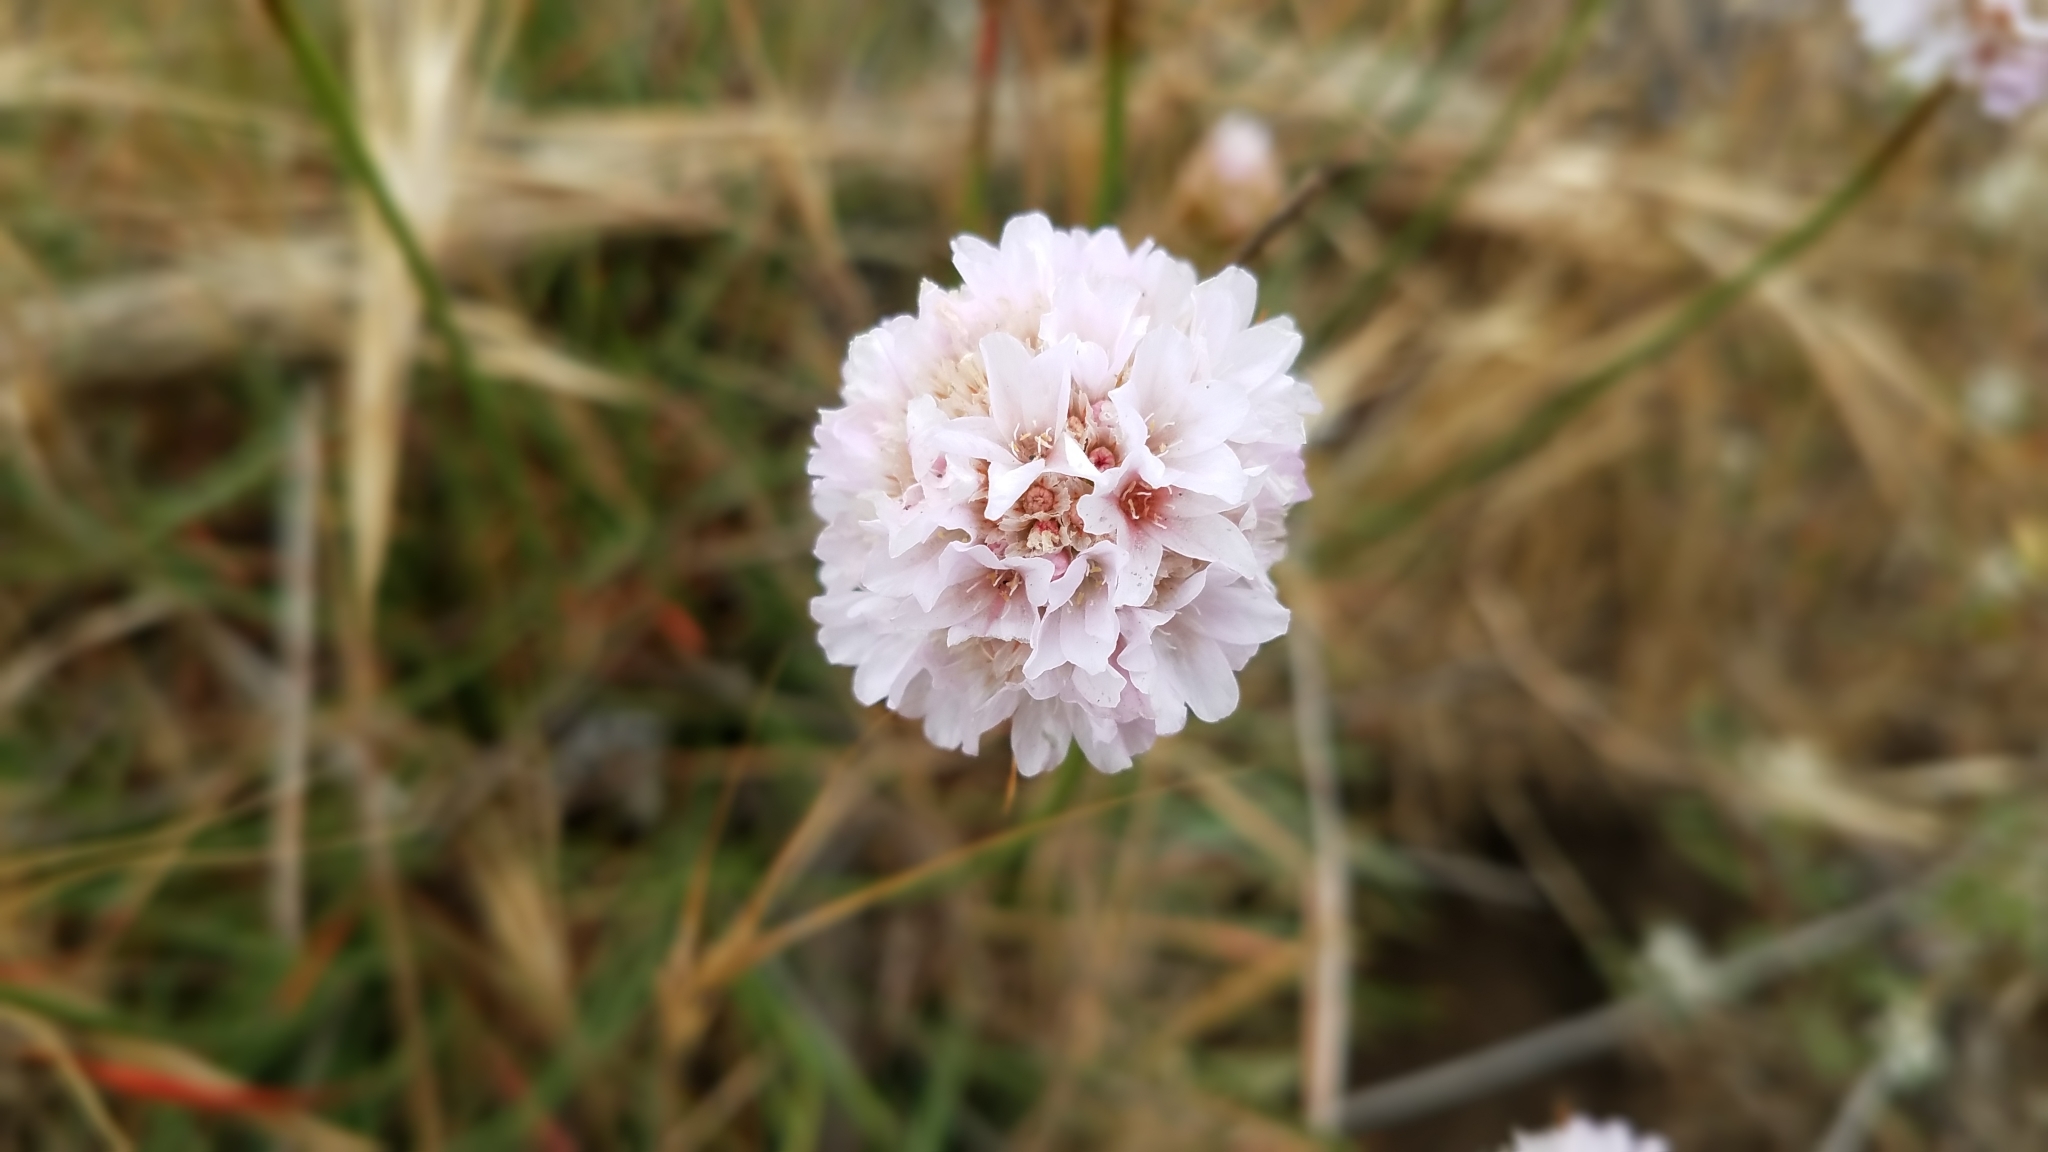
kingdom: Plantae
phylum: Tracheophyta
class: Magnoliopsida
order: Caryophyllales
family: Plumbaginaceae
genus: Armeria
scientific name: Armeria maritima
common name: Thrift
